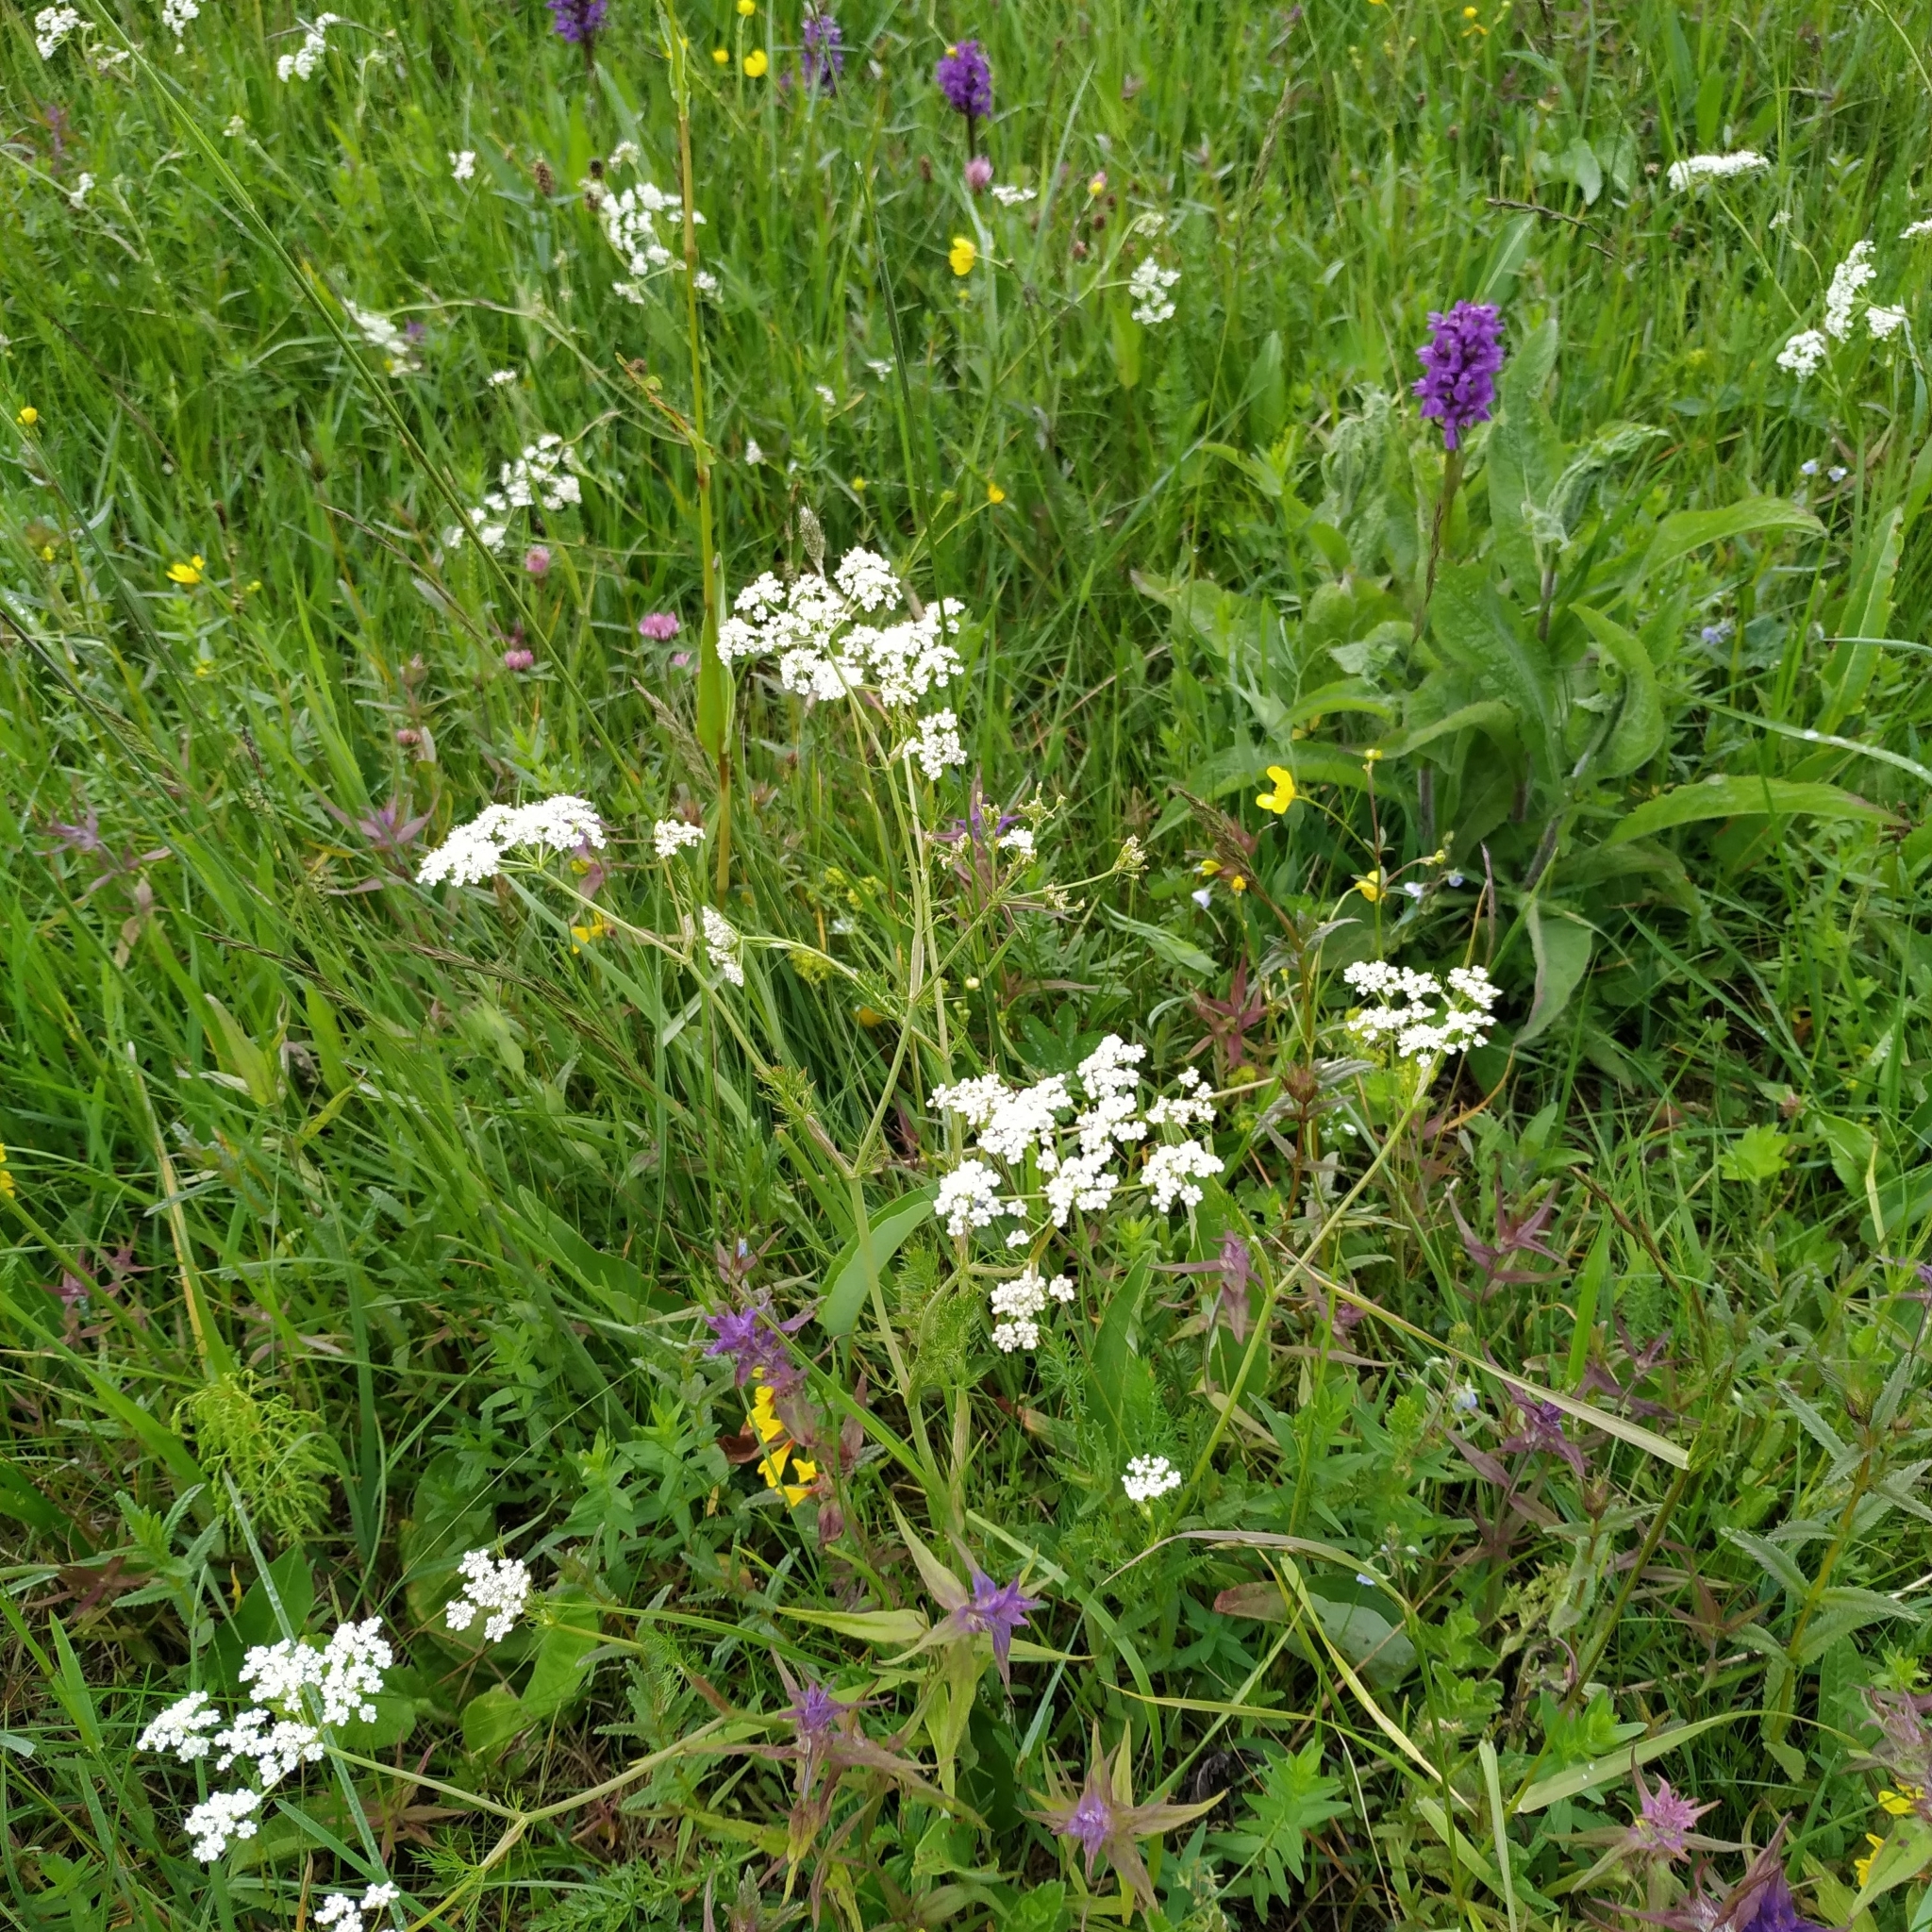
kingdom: Plantae
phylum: Tracheophyta
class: Magnoliopsida
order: Apiales
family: Apiaceae
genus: Carum
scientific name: Carum carvi
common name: Caraway
